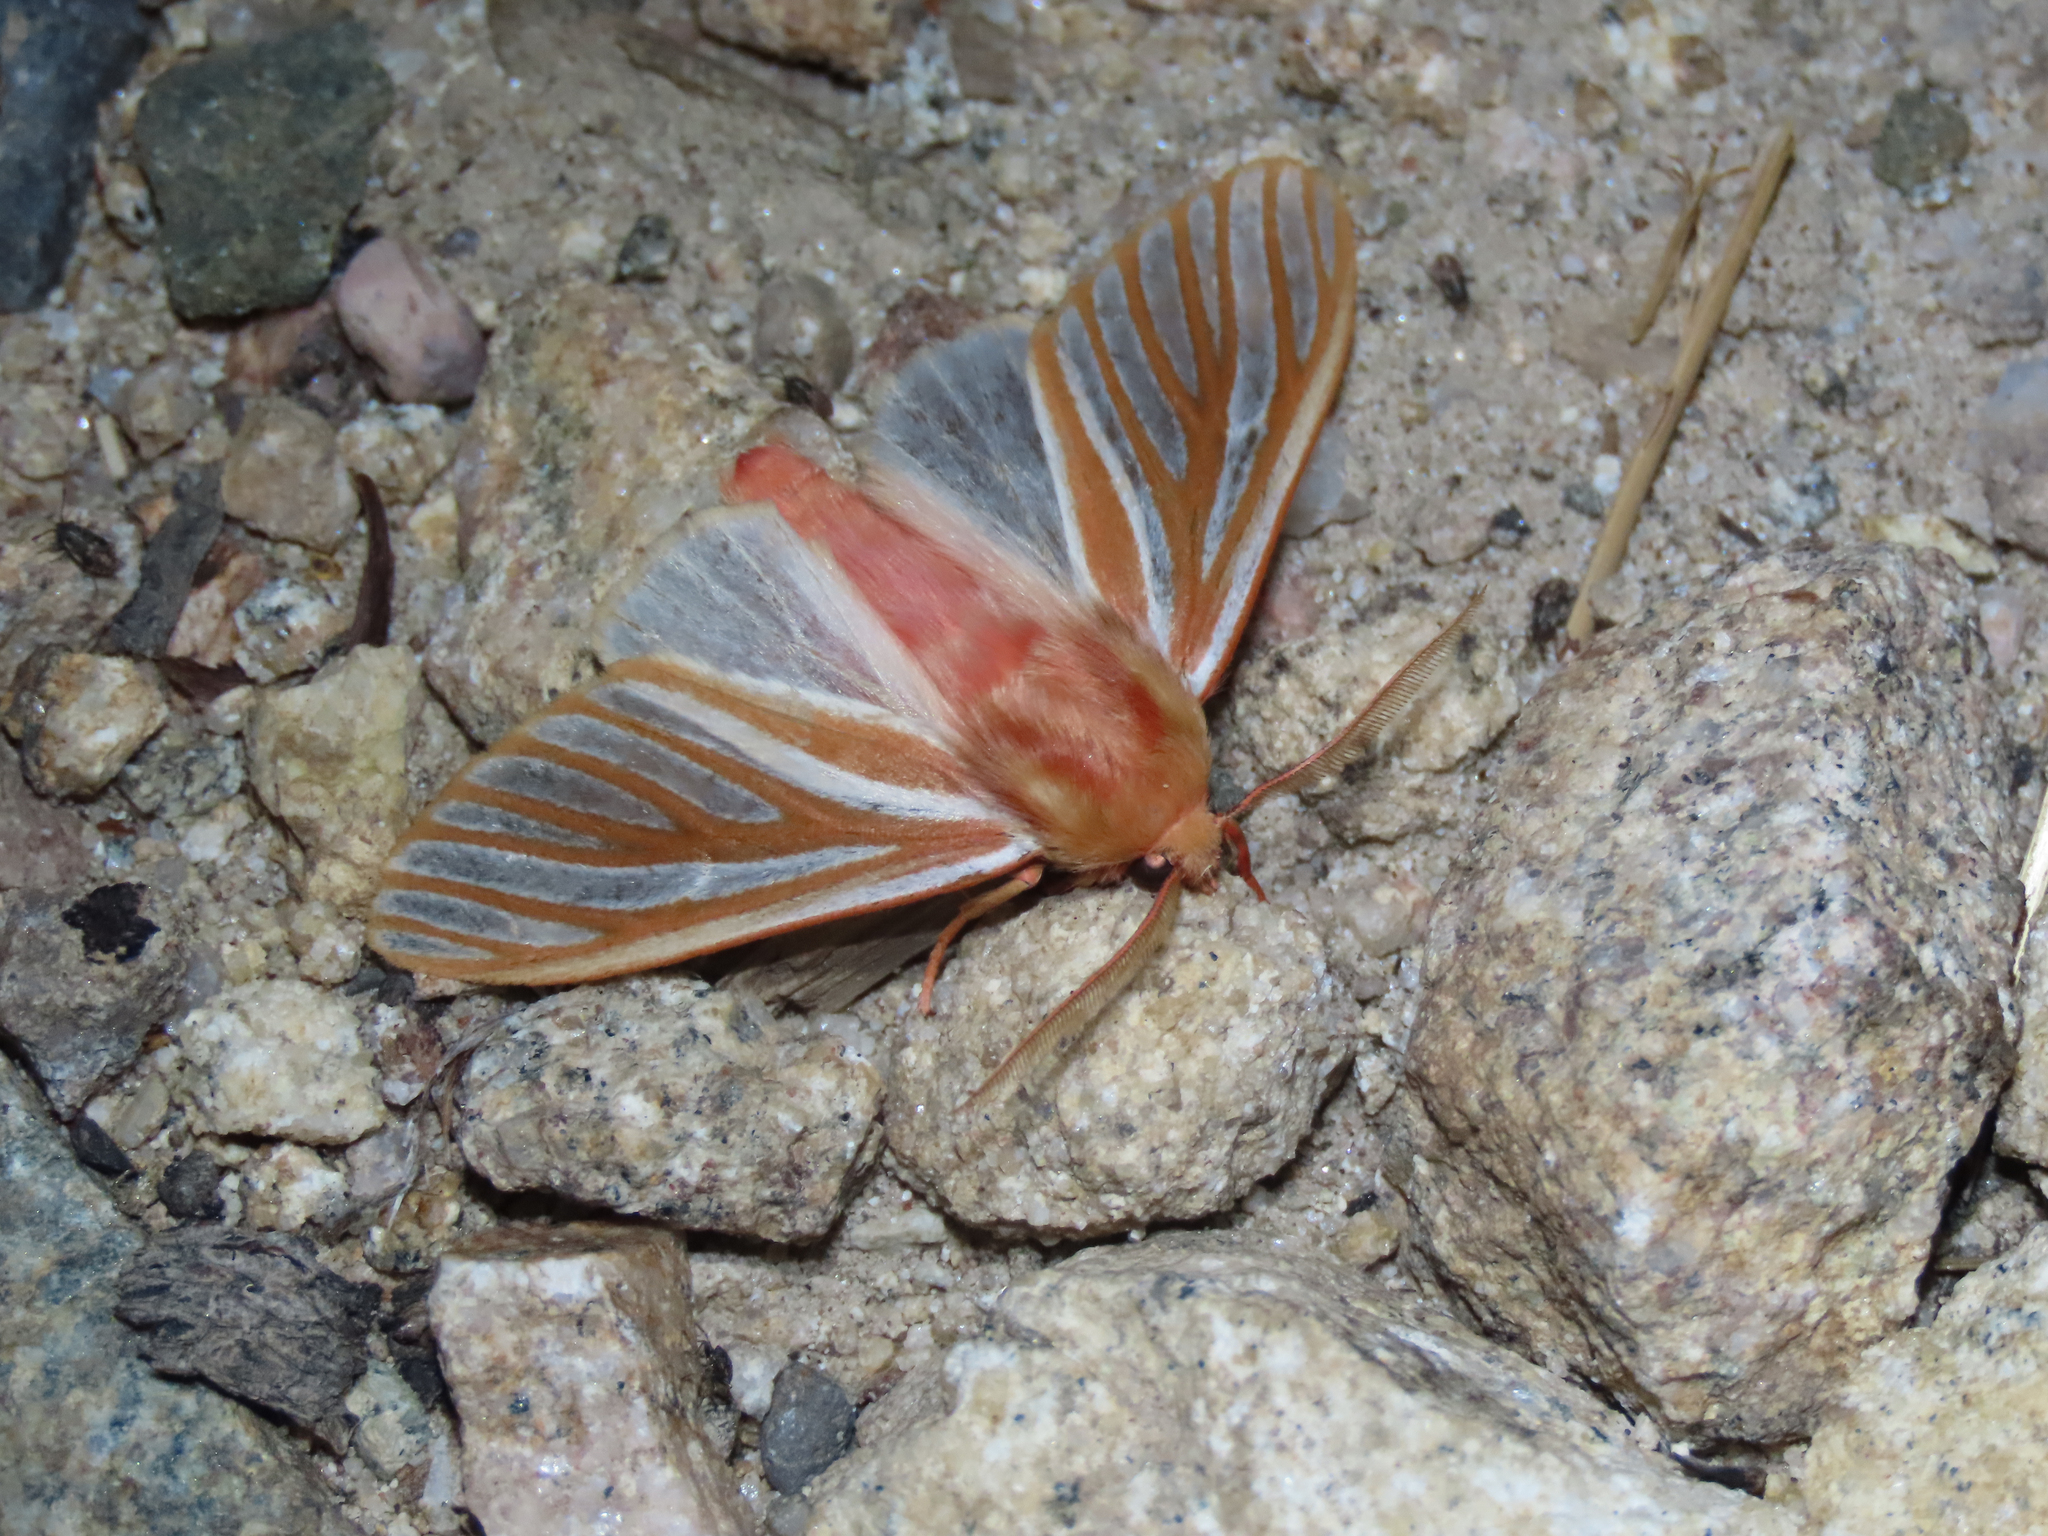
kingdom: Animalia
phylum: Arthropoda
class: Insecta
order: Lepidoptera
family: Erebidae
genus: Hemihyalea
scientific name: Hemihyalea ambigua
